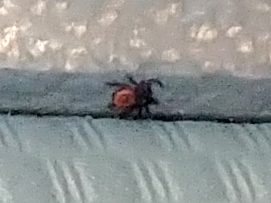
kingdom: Animalia
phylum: Arthropoda
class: Arachnida
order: Ixodida
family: Ixodidae
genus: Ixodes
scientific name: Ixodes scapularis
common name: Black legged tick
